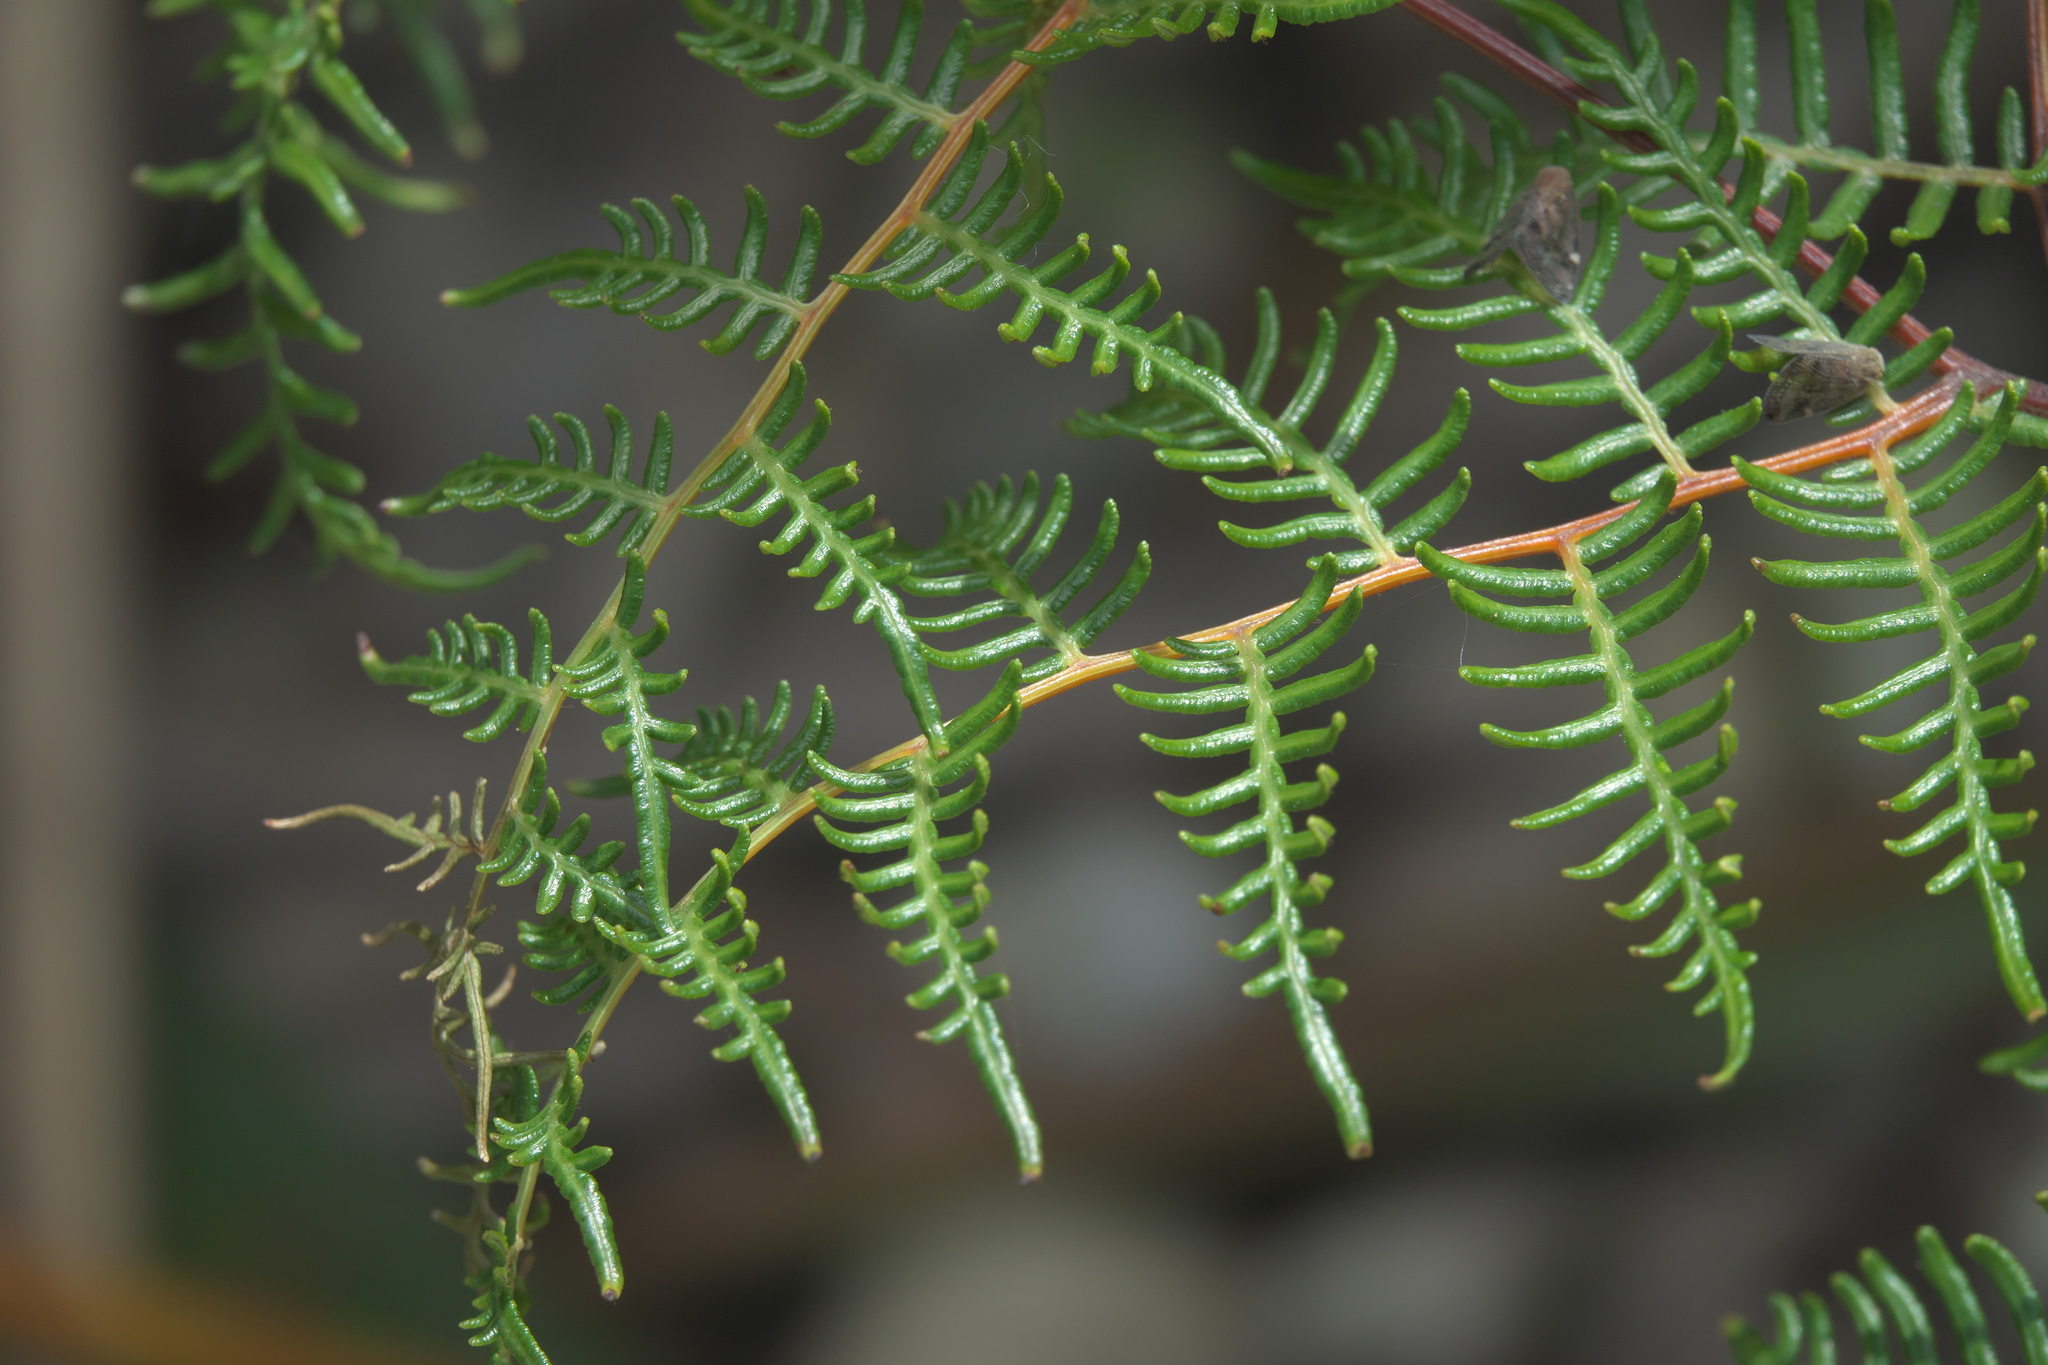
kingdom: Plantae
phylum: Tracheophyta
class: Polypodiopsida
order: Polypodiales
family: Dennstaedtiaceae
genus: Pteridium
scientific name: Pteridium esculentum
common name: Bracken fern
